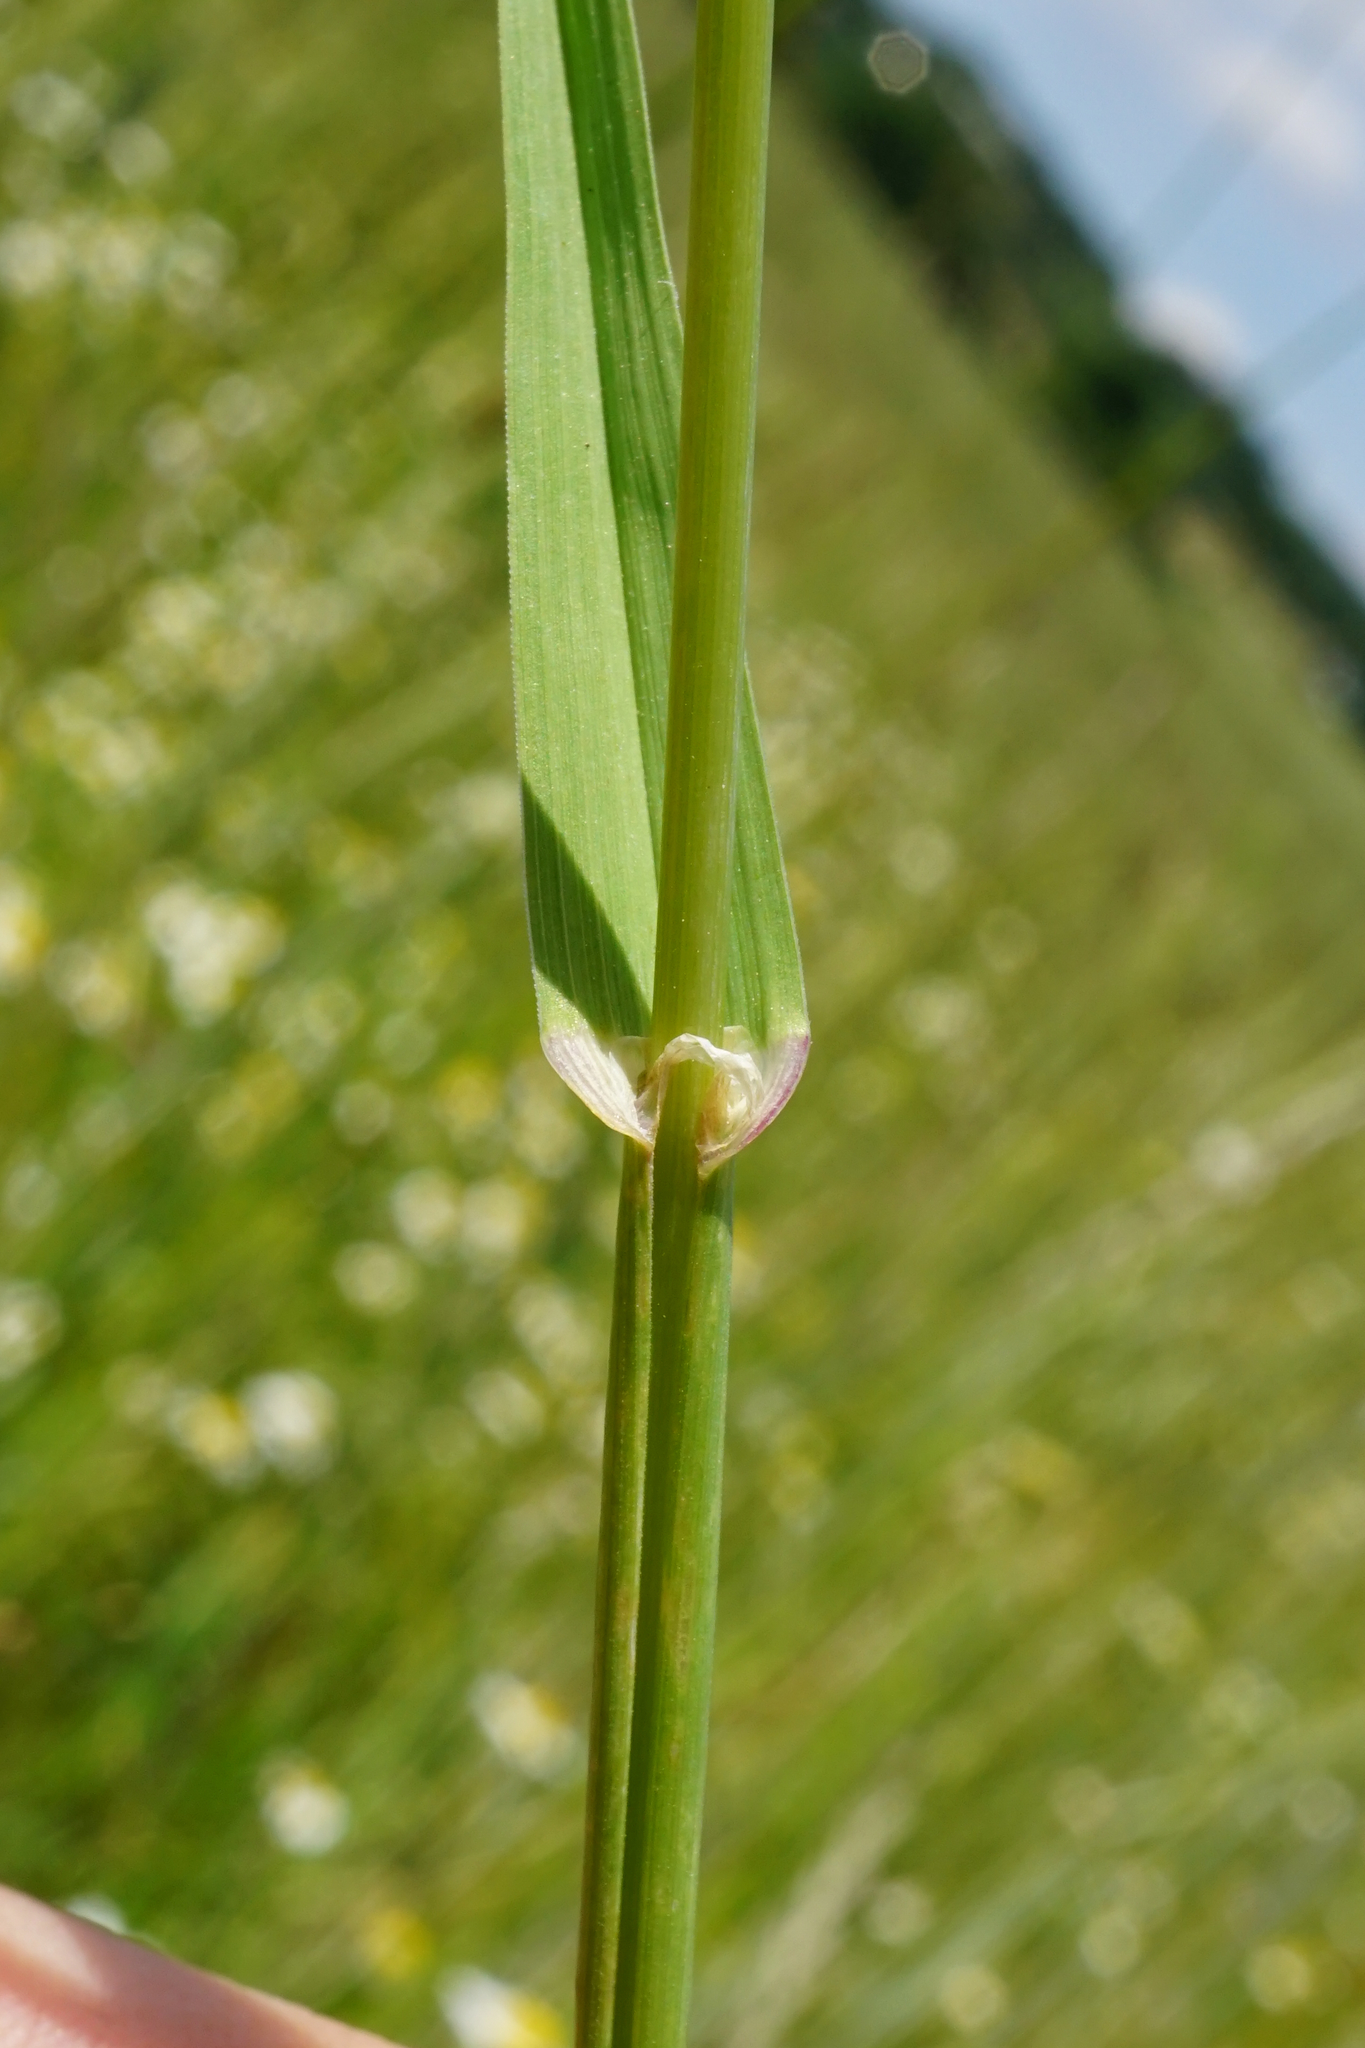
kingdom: Plantae
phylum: Tracheophyta
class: Liliopsida
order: Poales
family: Poaceae
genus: Dactylis
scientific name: Dactylis glomerata
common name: Orchardgrass
